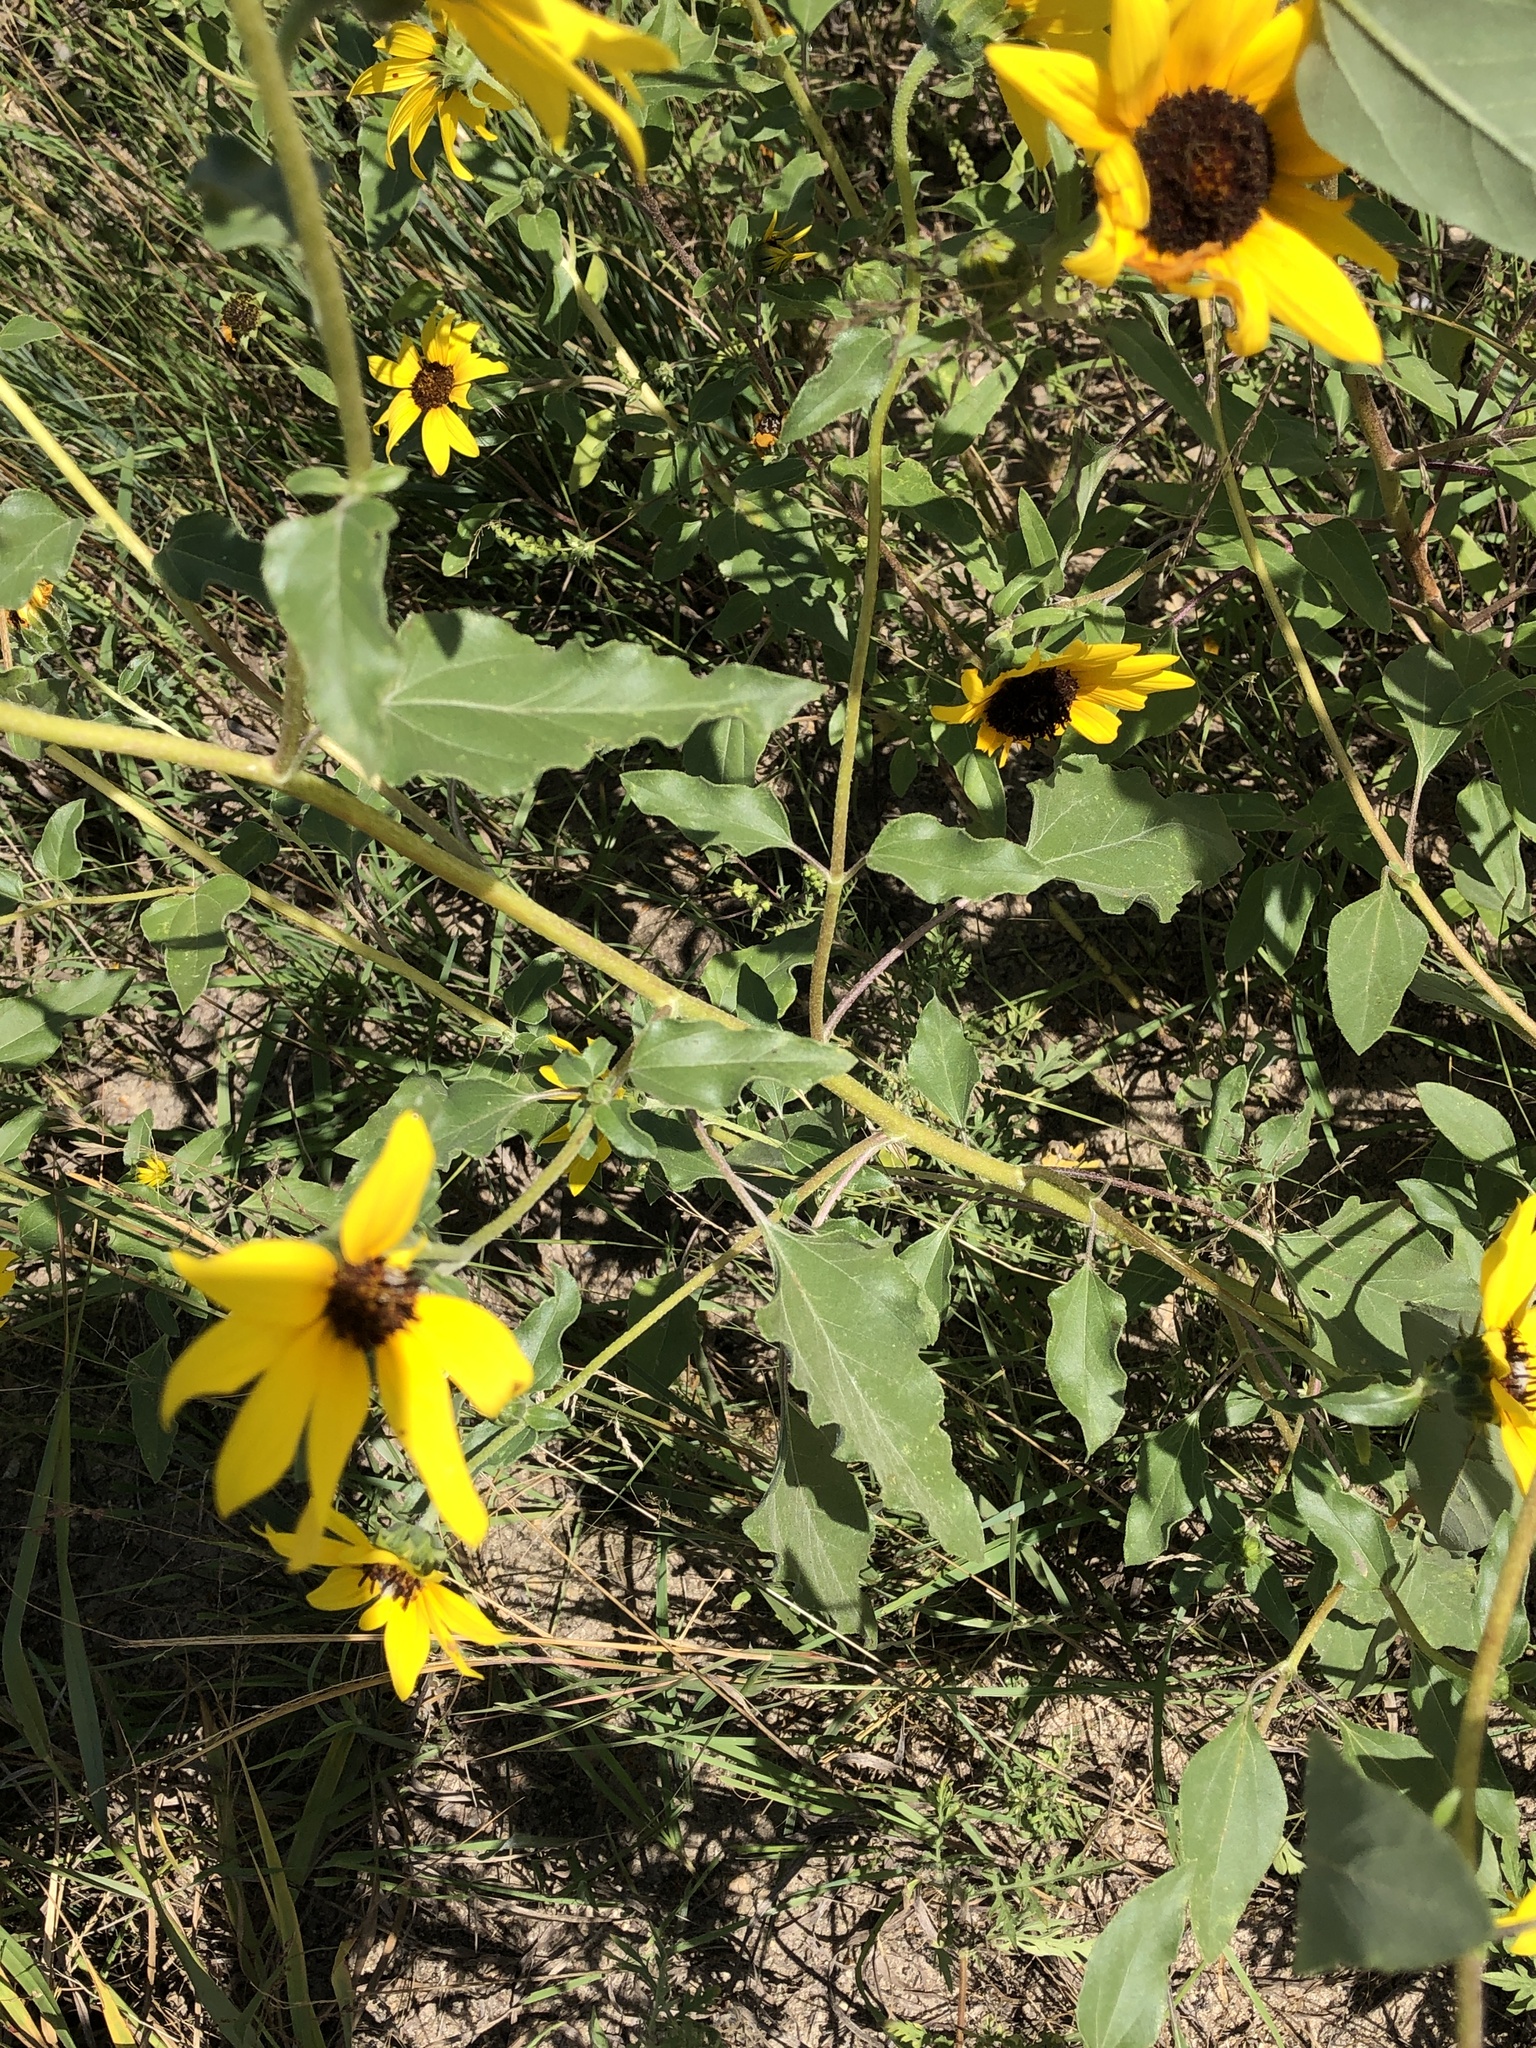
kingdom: Plantae
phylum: Tracheophyta
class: Magnoliopsida
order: Asterales
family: Asteraceae
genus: Helianthus
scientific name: Helianthus petiolaris
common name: Lesser sunflower
